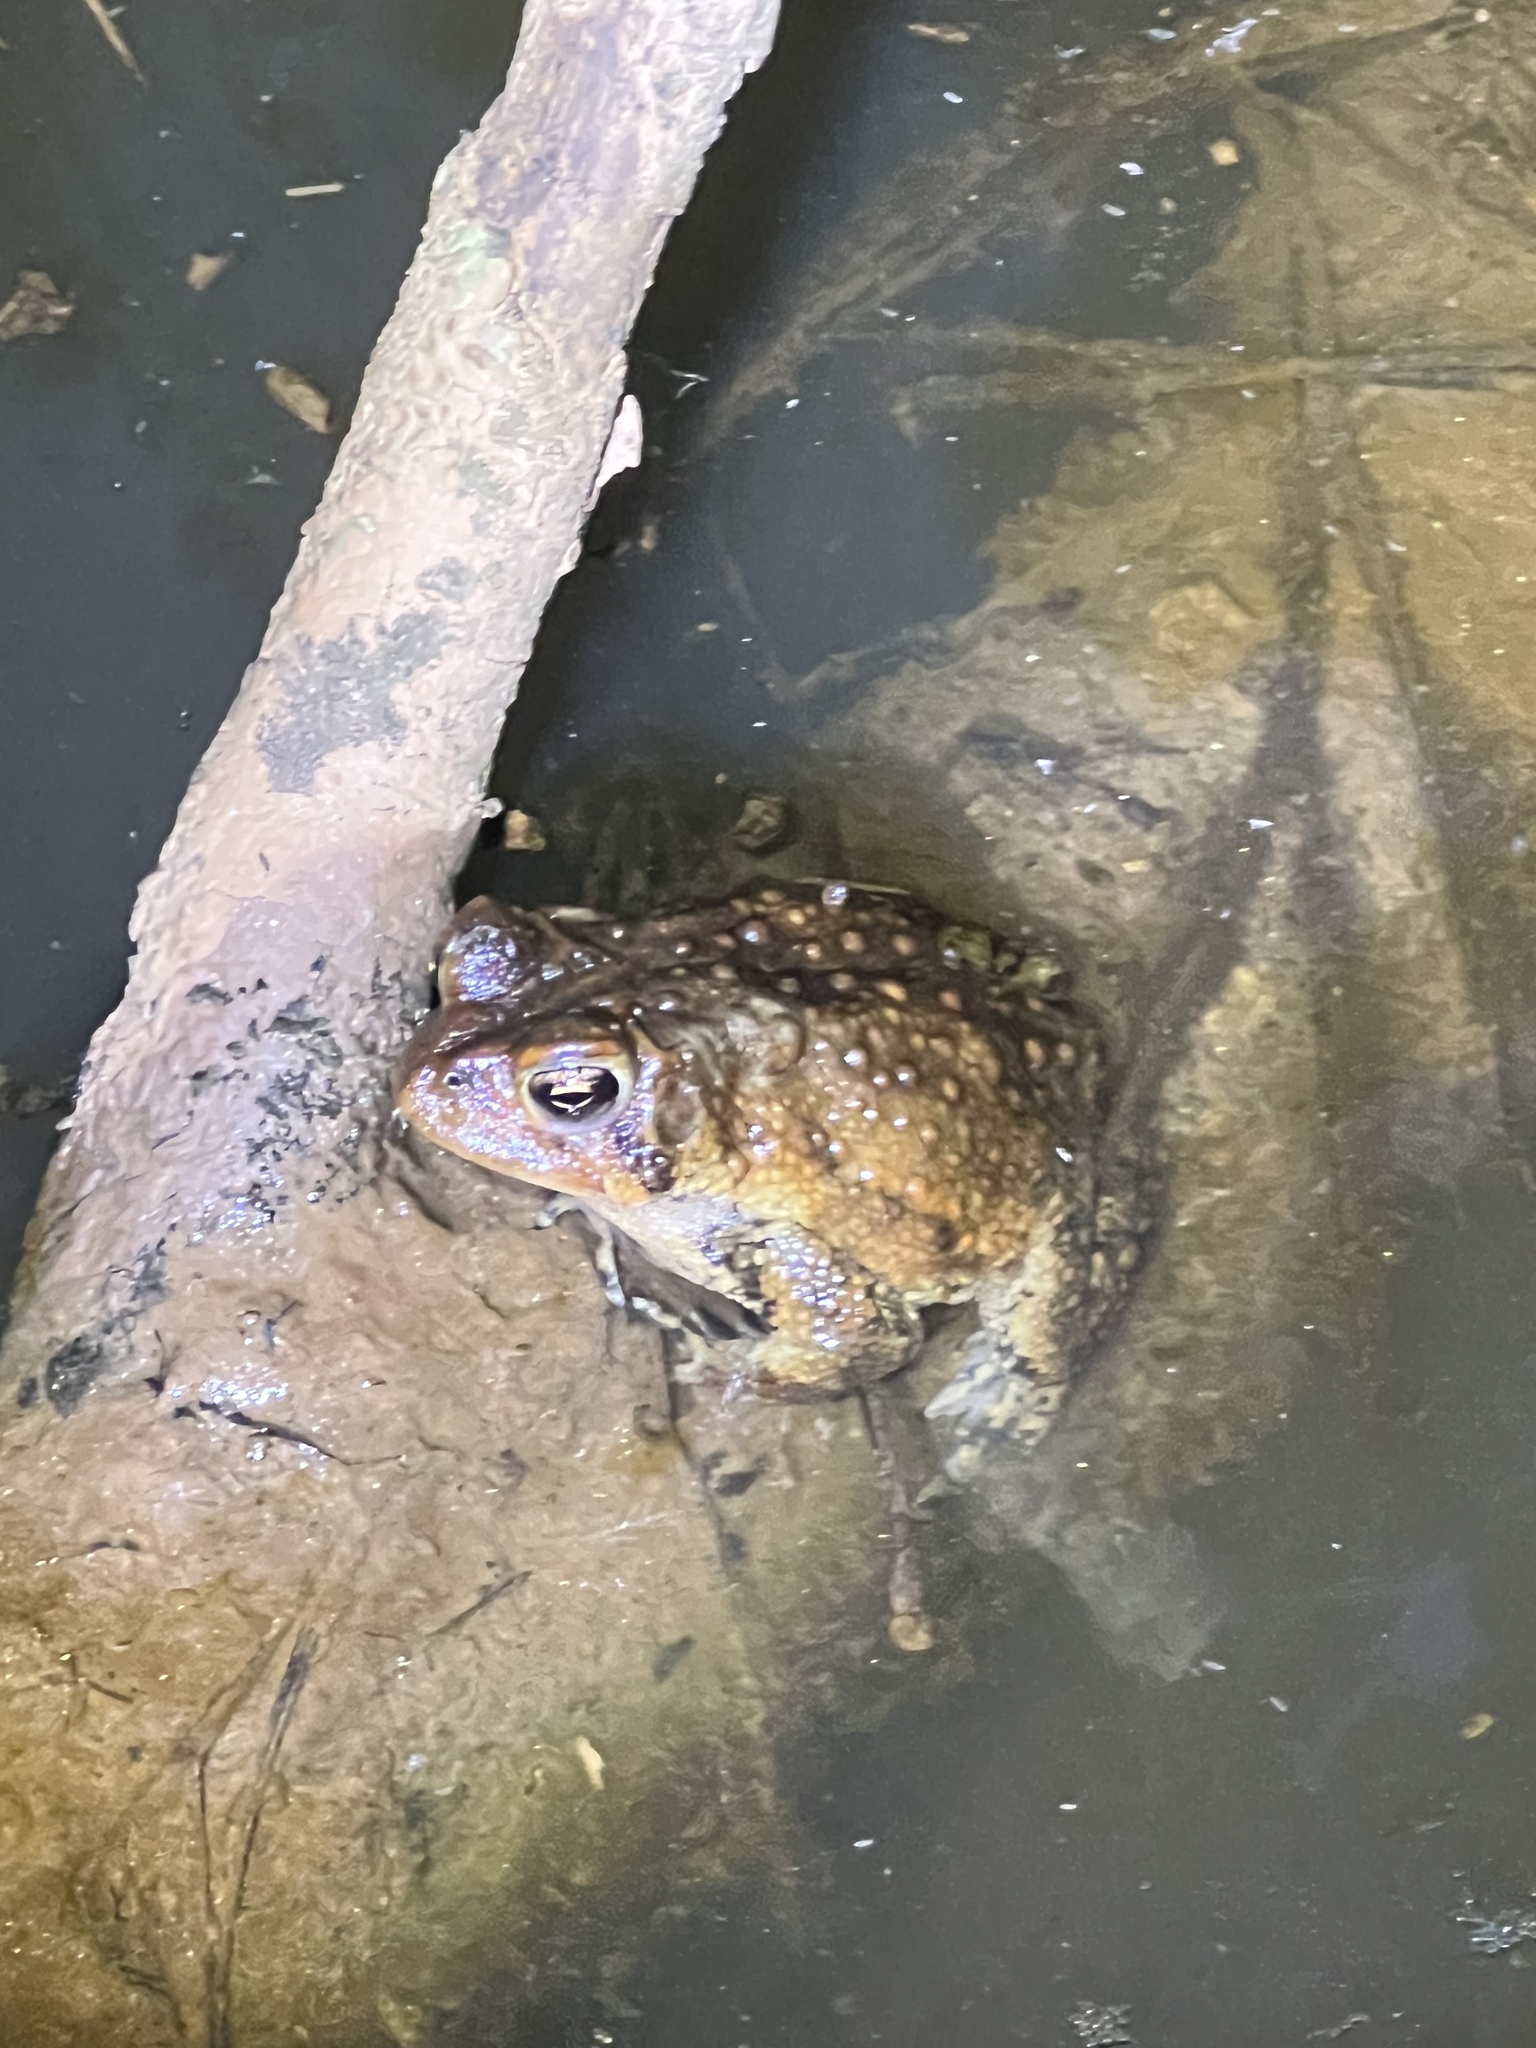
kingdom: Animalia
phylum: Chordata
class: Amphibia
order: Anura
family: Bufonidae
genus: Anaxyrus
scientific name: Anaxyrus americanus
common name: American toad
